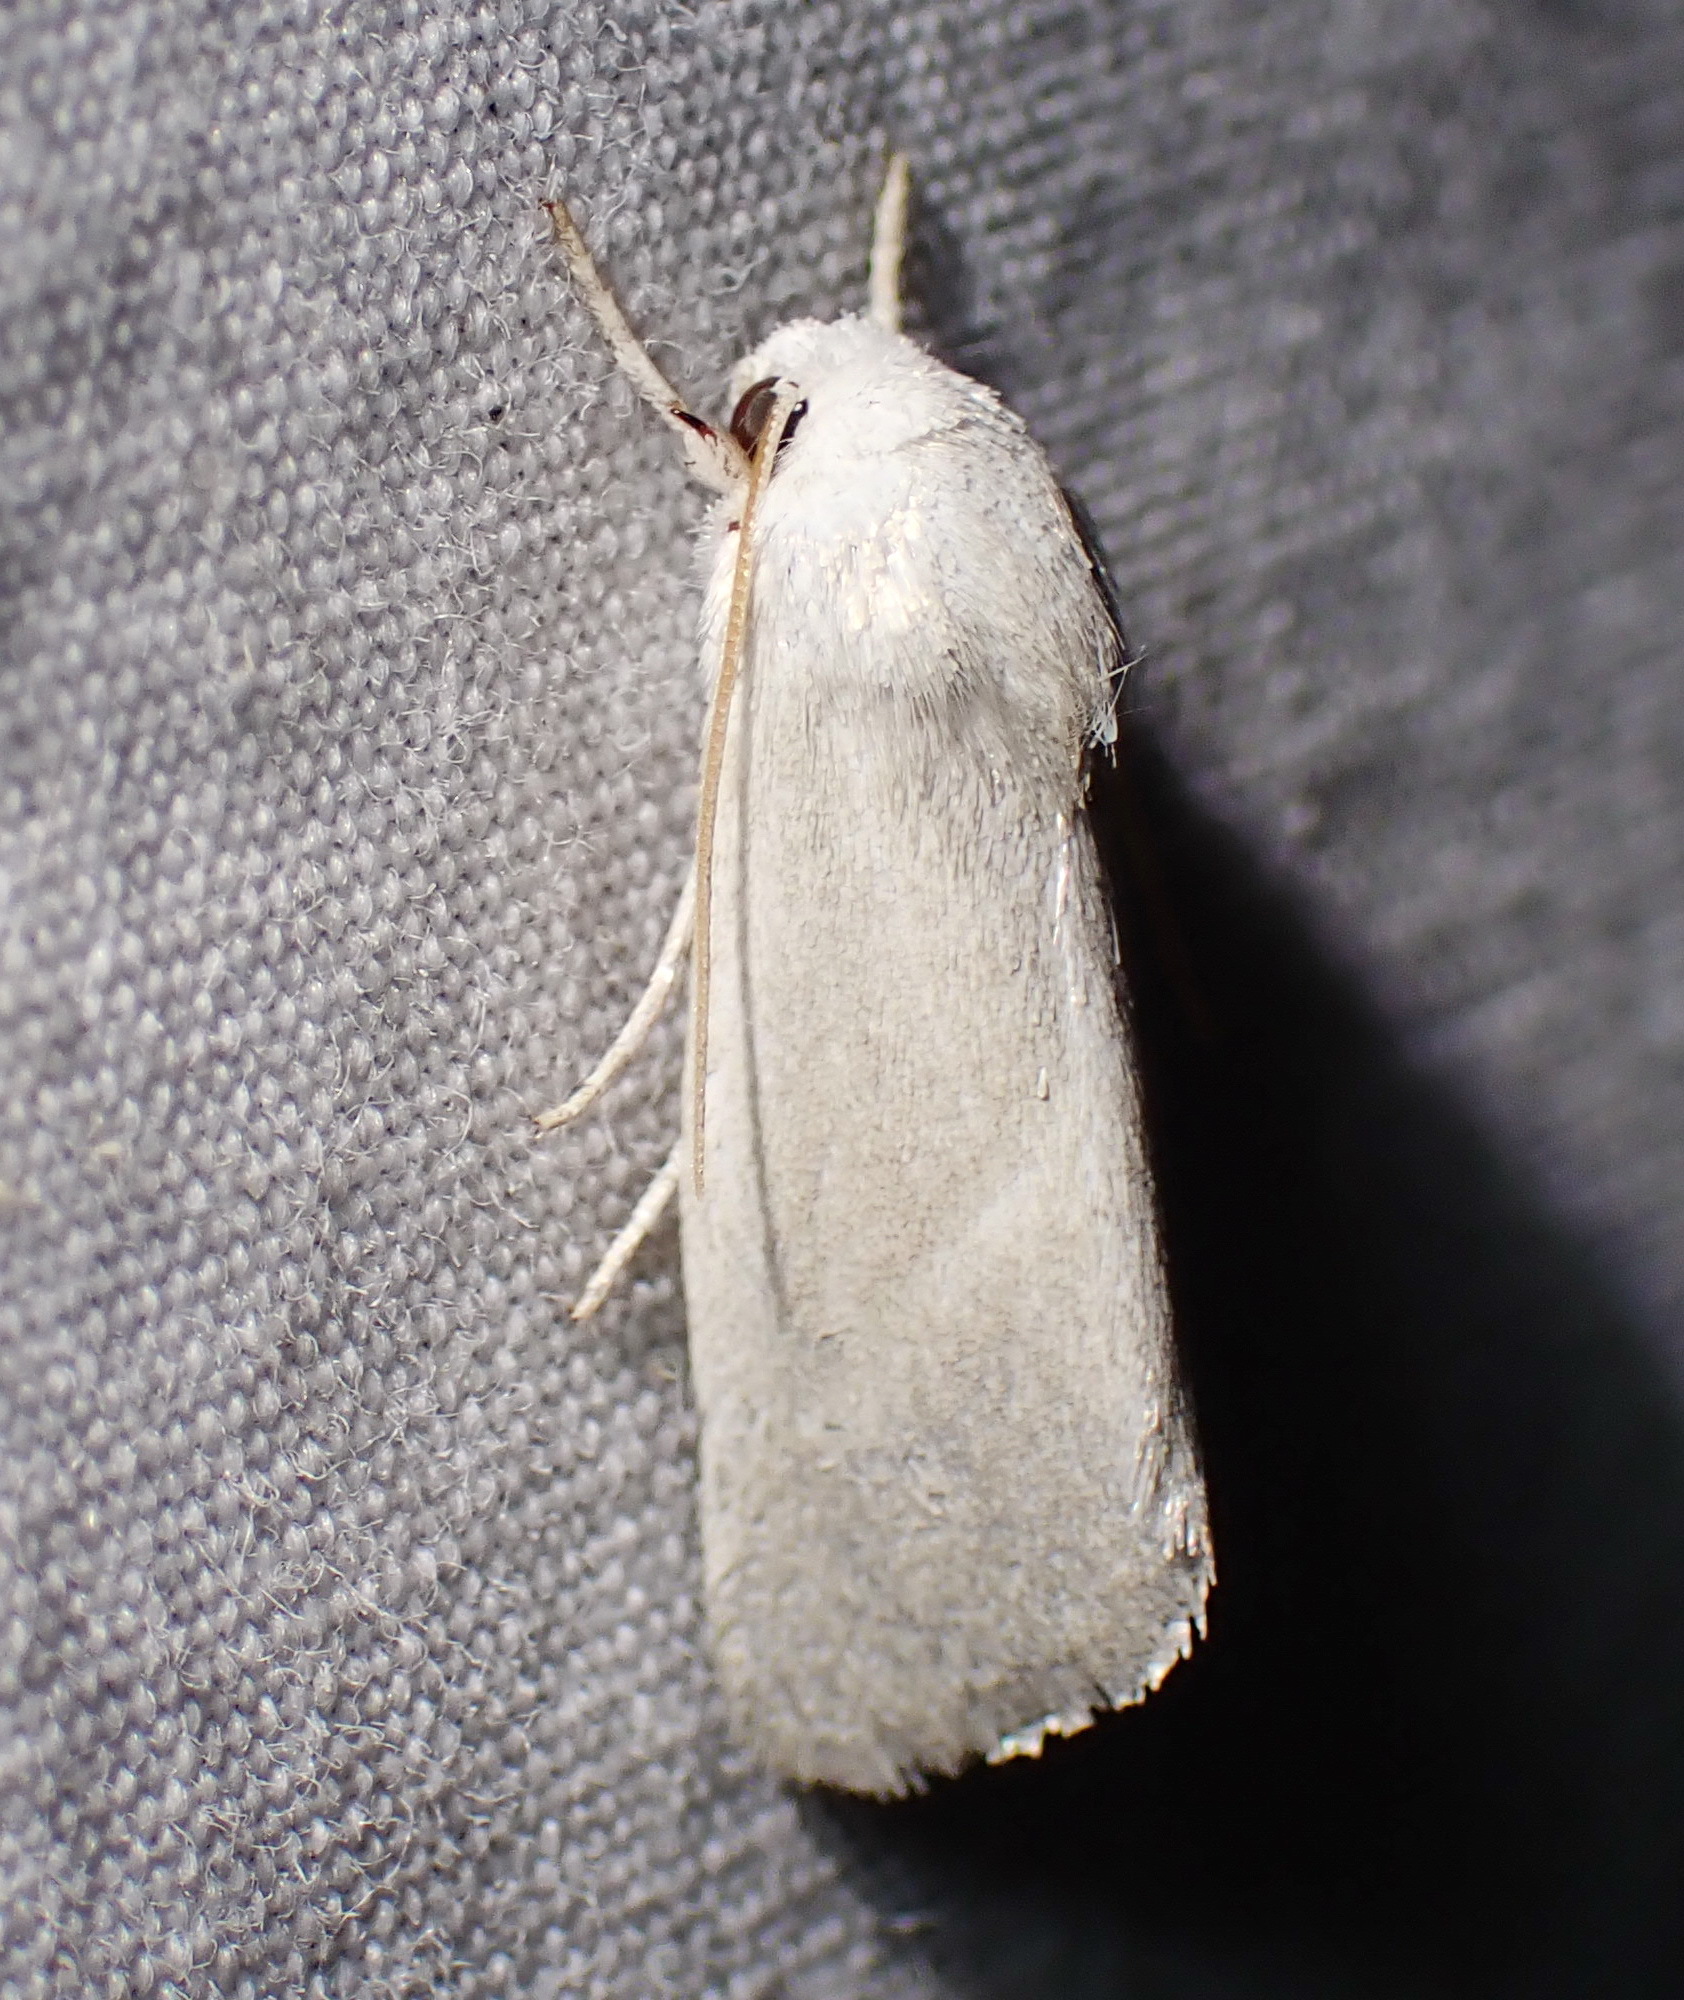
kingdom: Animalia
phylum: Arthropoda
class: Insecta
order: Lepidoptera
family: Noctuidae
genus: Leucocnemis
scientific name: Leucocnemis nivalis
